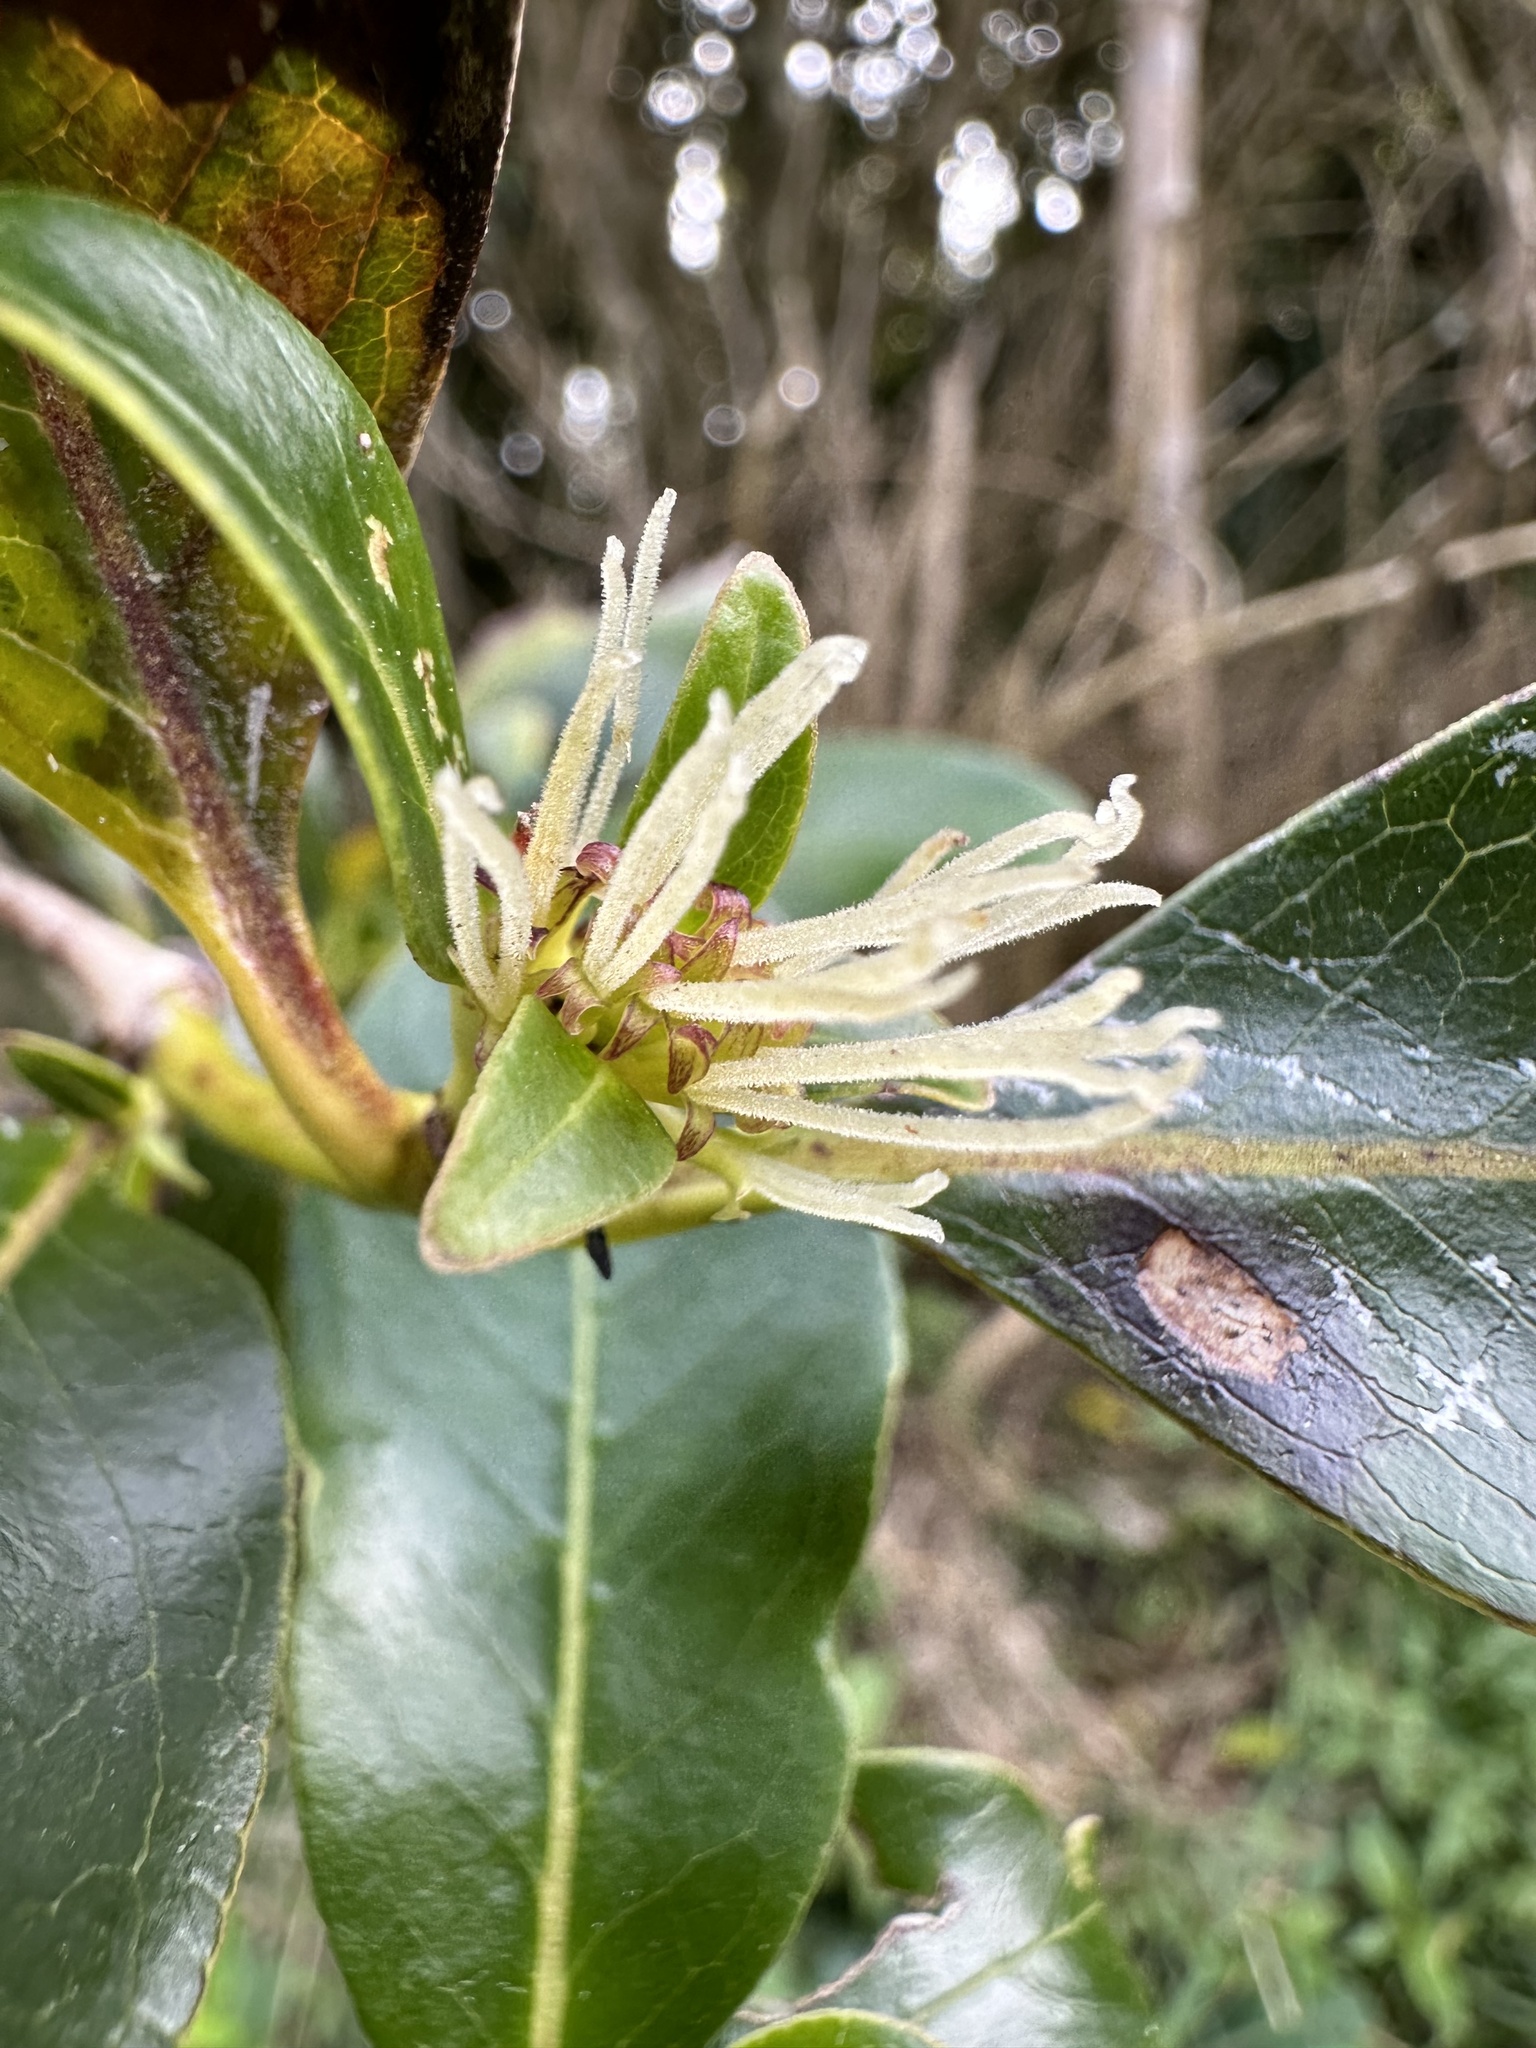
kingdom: Plantae
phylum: Tracheophyta
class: Magnoliopsida
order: Gentianales
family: Rubiaceae
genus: Coprosma
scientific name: Coprosma robusta
